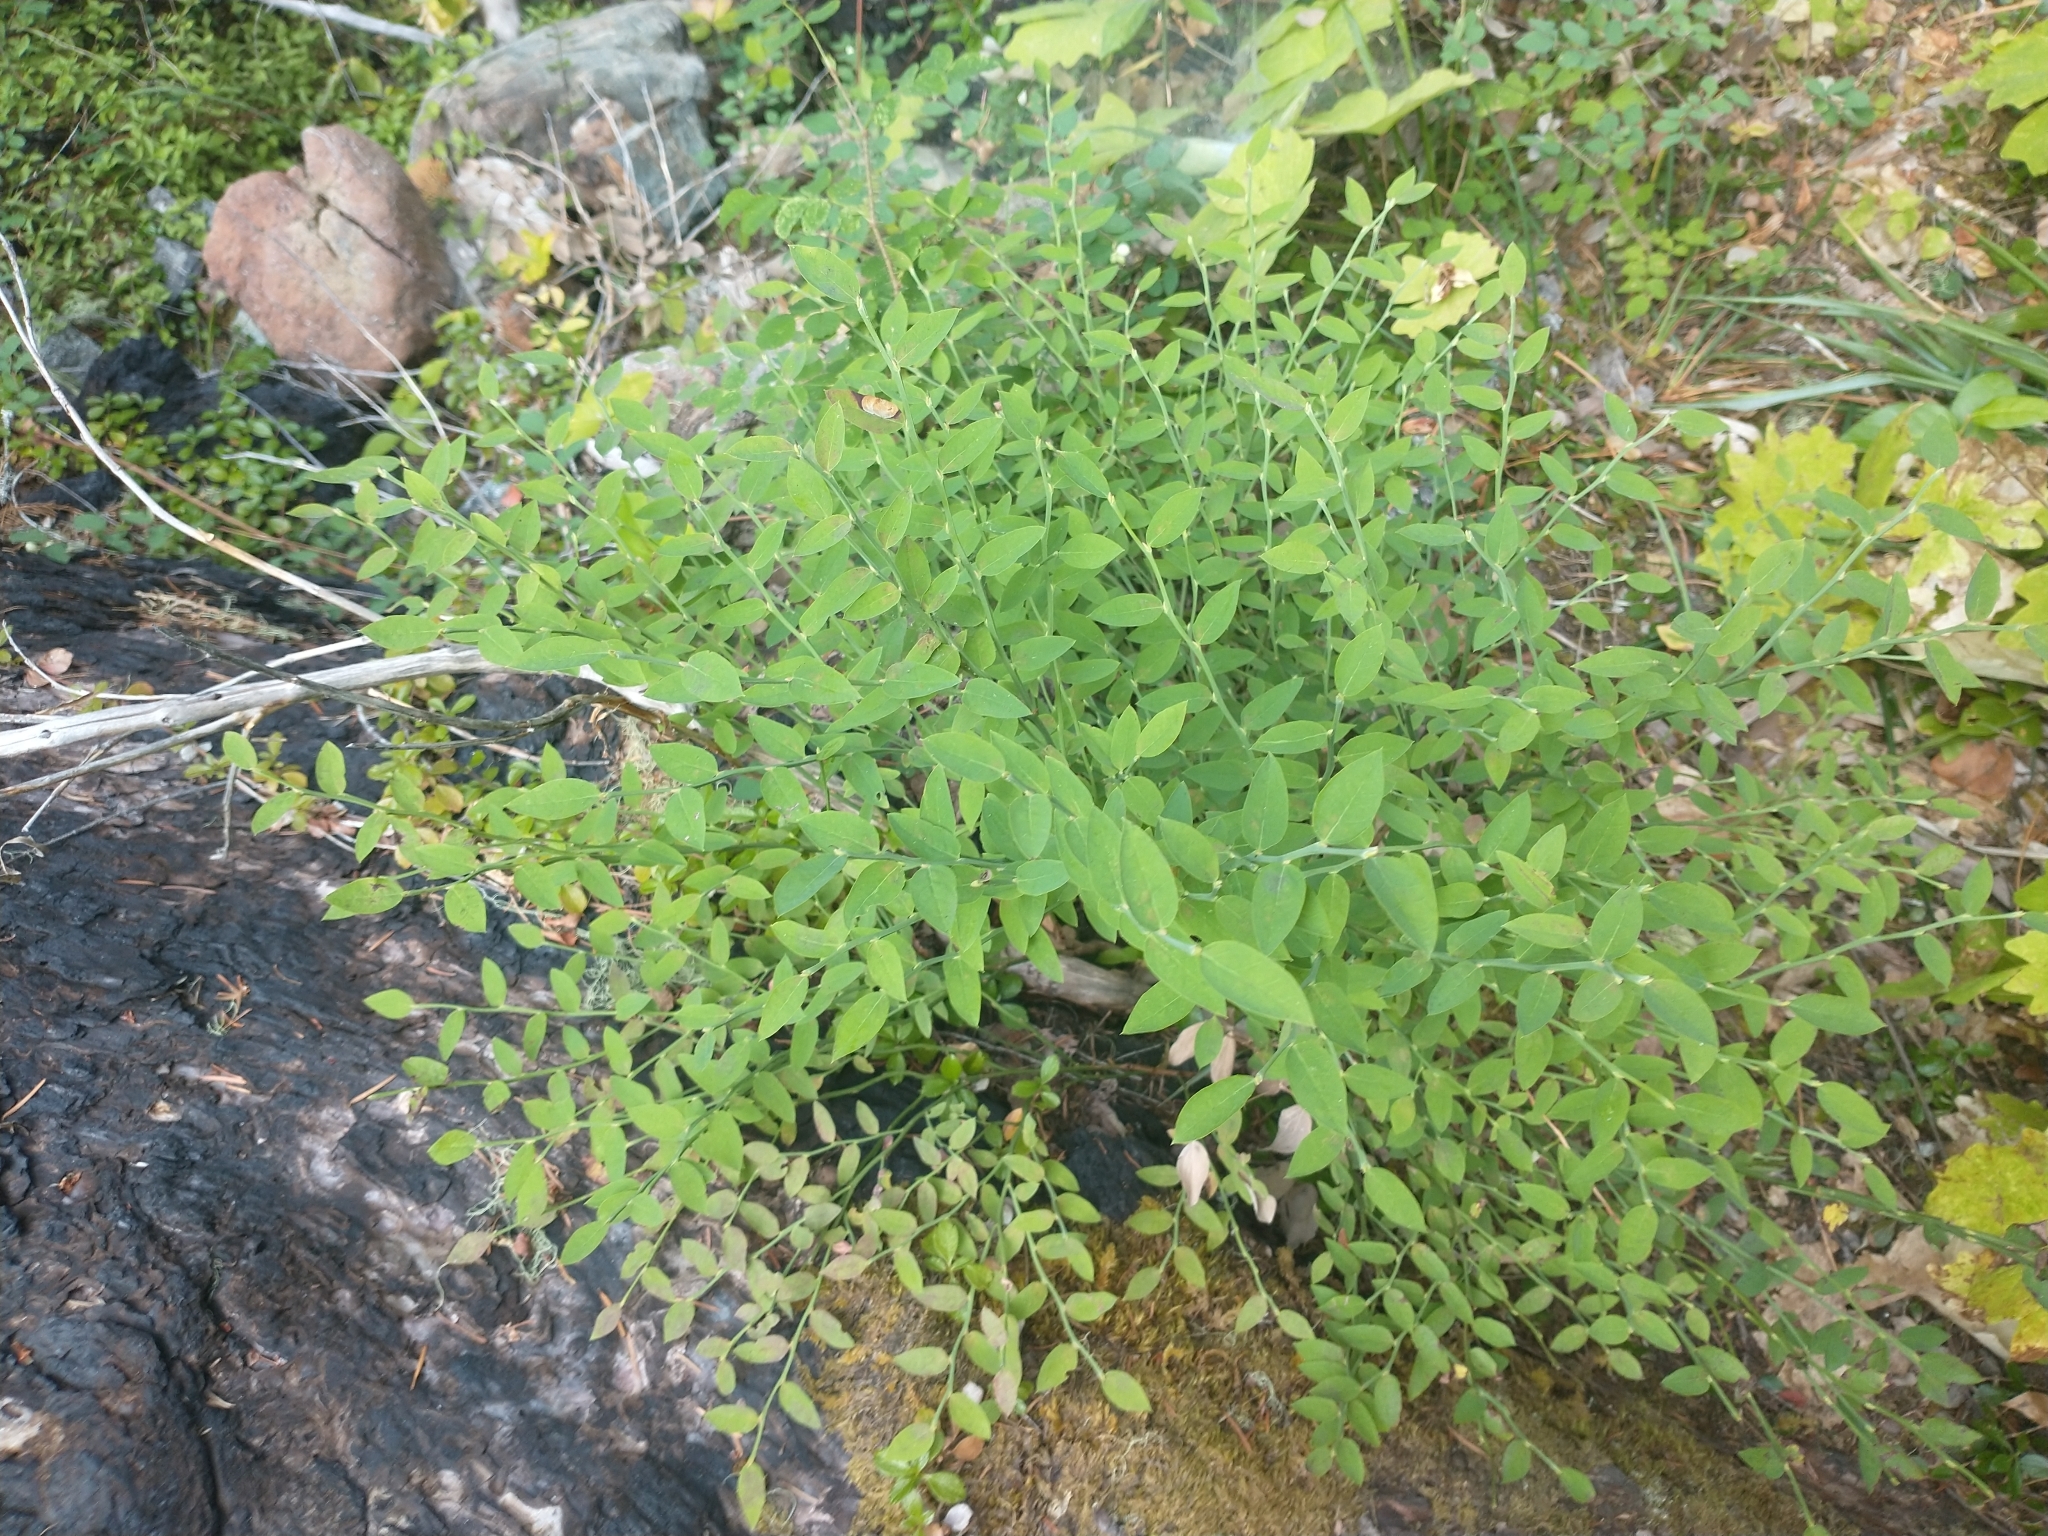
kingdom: Plantae
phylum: Tracheophyta
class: Magnoliopsida
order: Ericales
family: Ericaceae
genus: Vaccinium
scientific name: Vaccinium parvifolium
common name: Red-huckleberry
